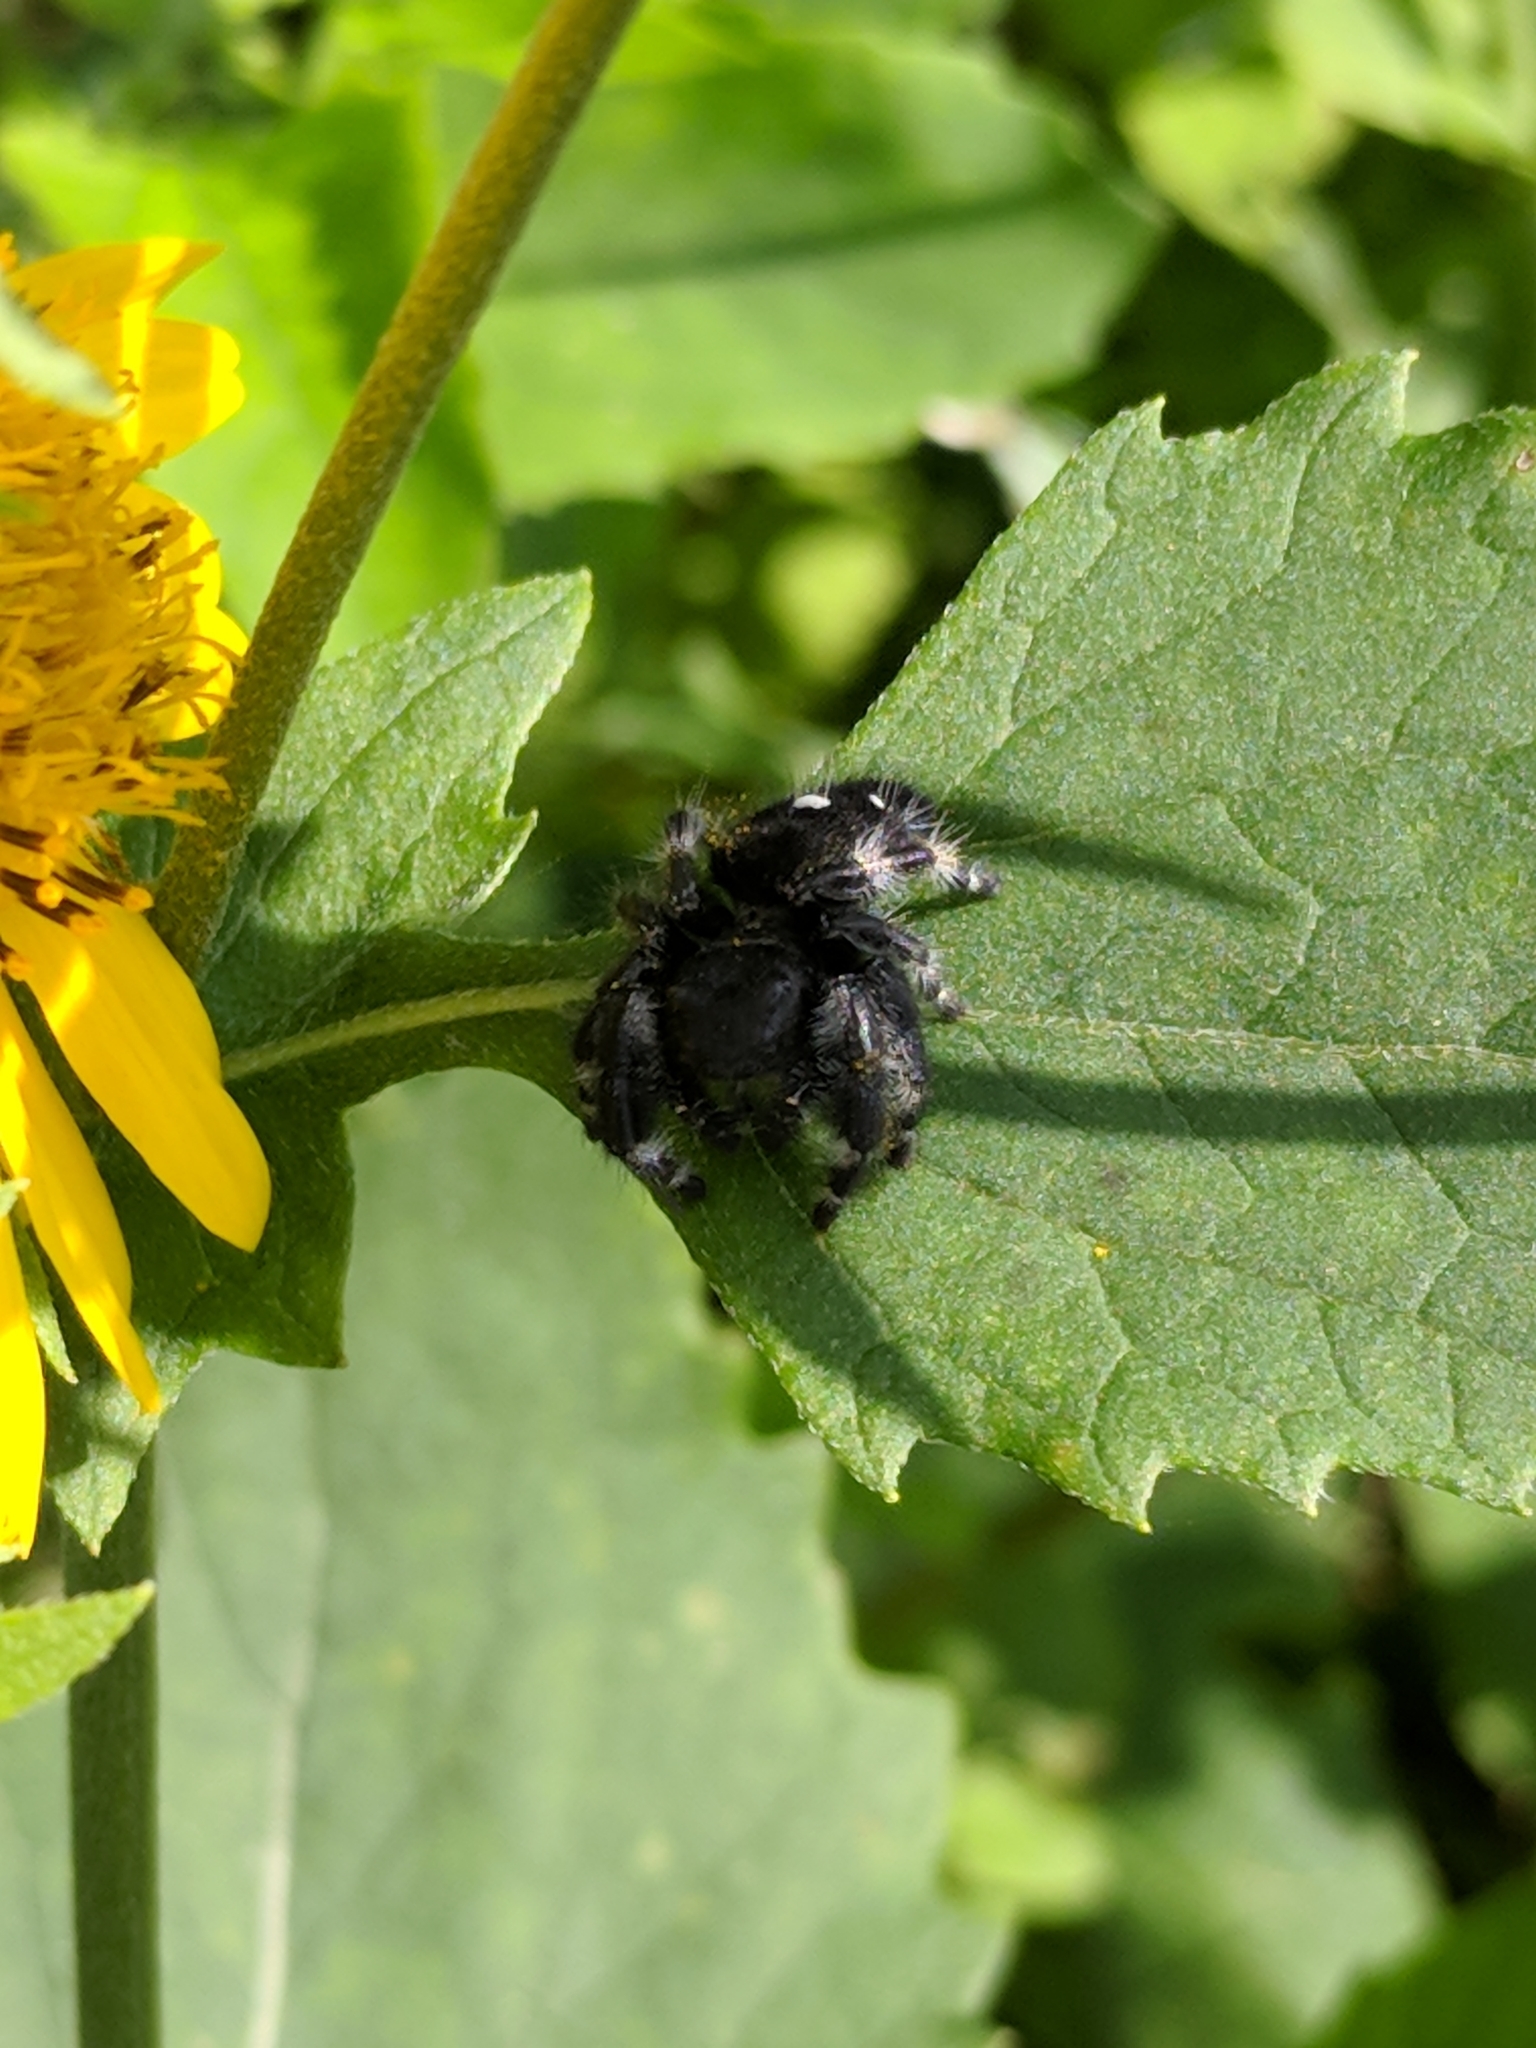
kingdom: Animalia
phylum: Arthropoda
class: Arachnida
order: Araneae
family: Salticidae
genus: Phidippus
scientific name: Phidippus audax
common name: Bold jumper
